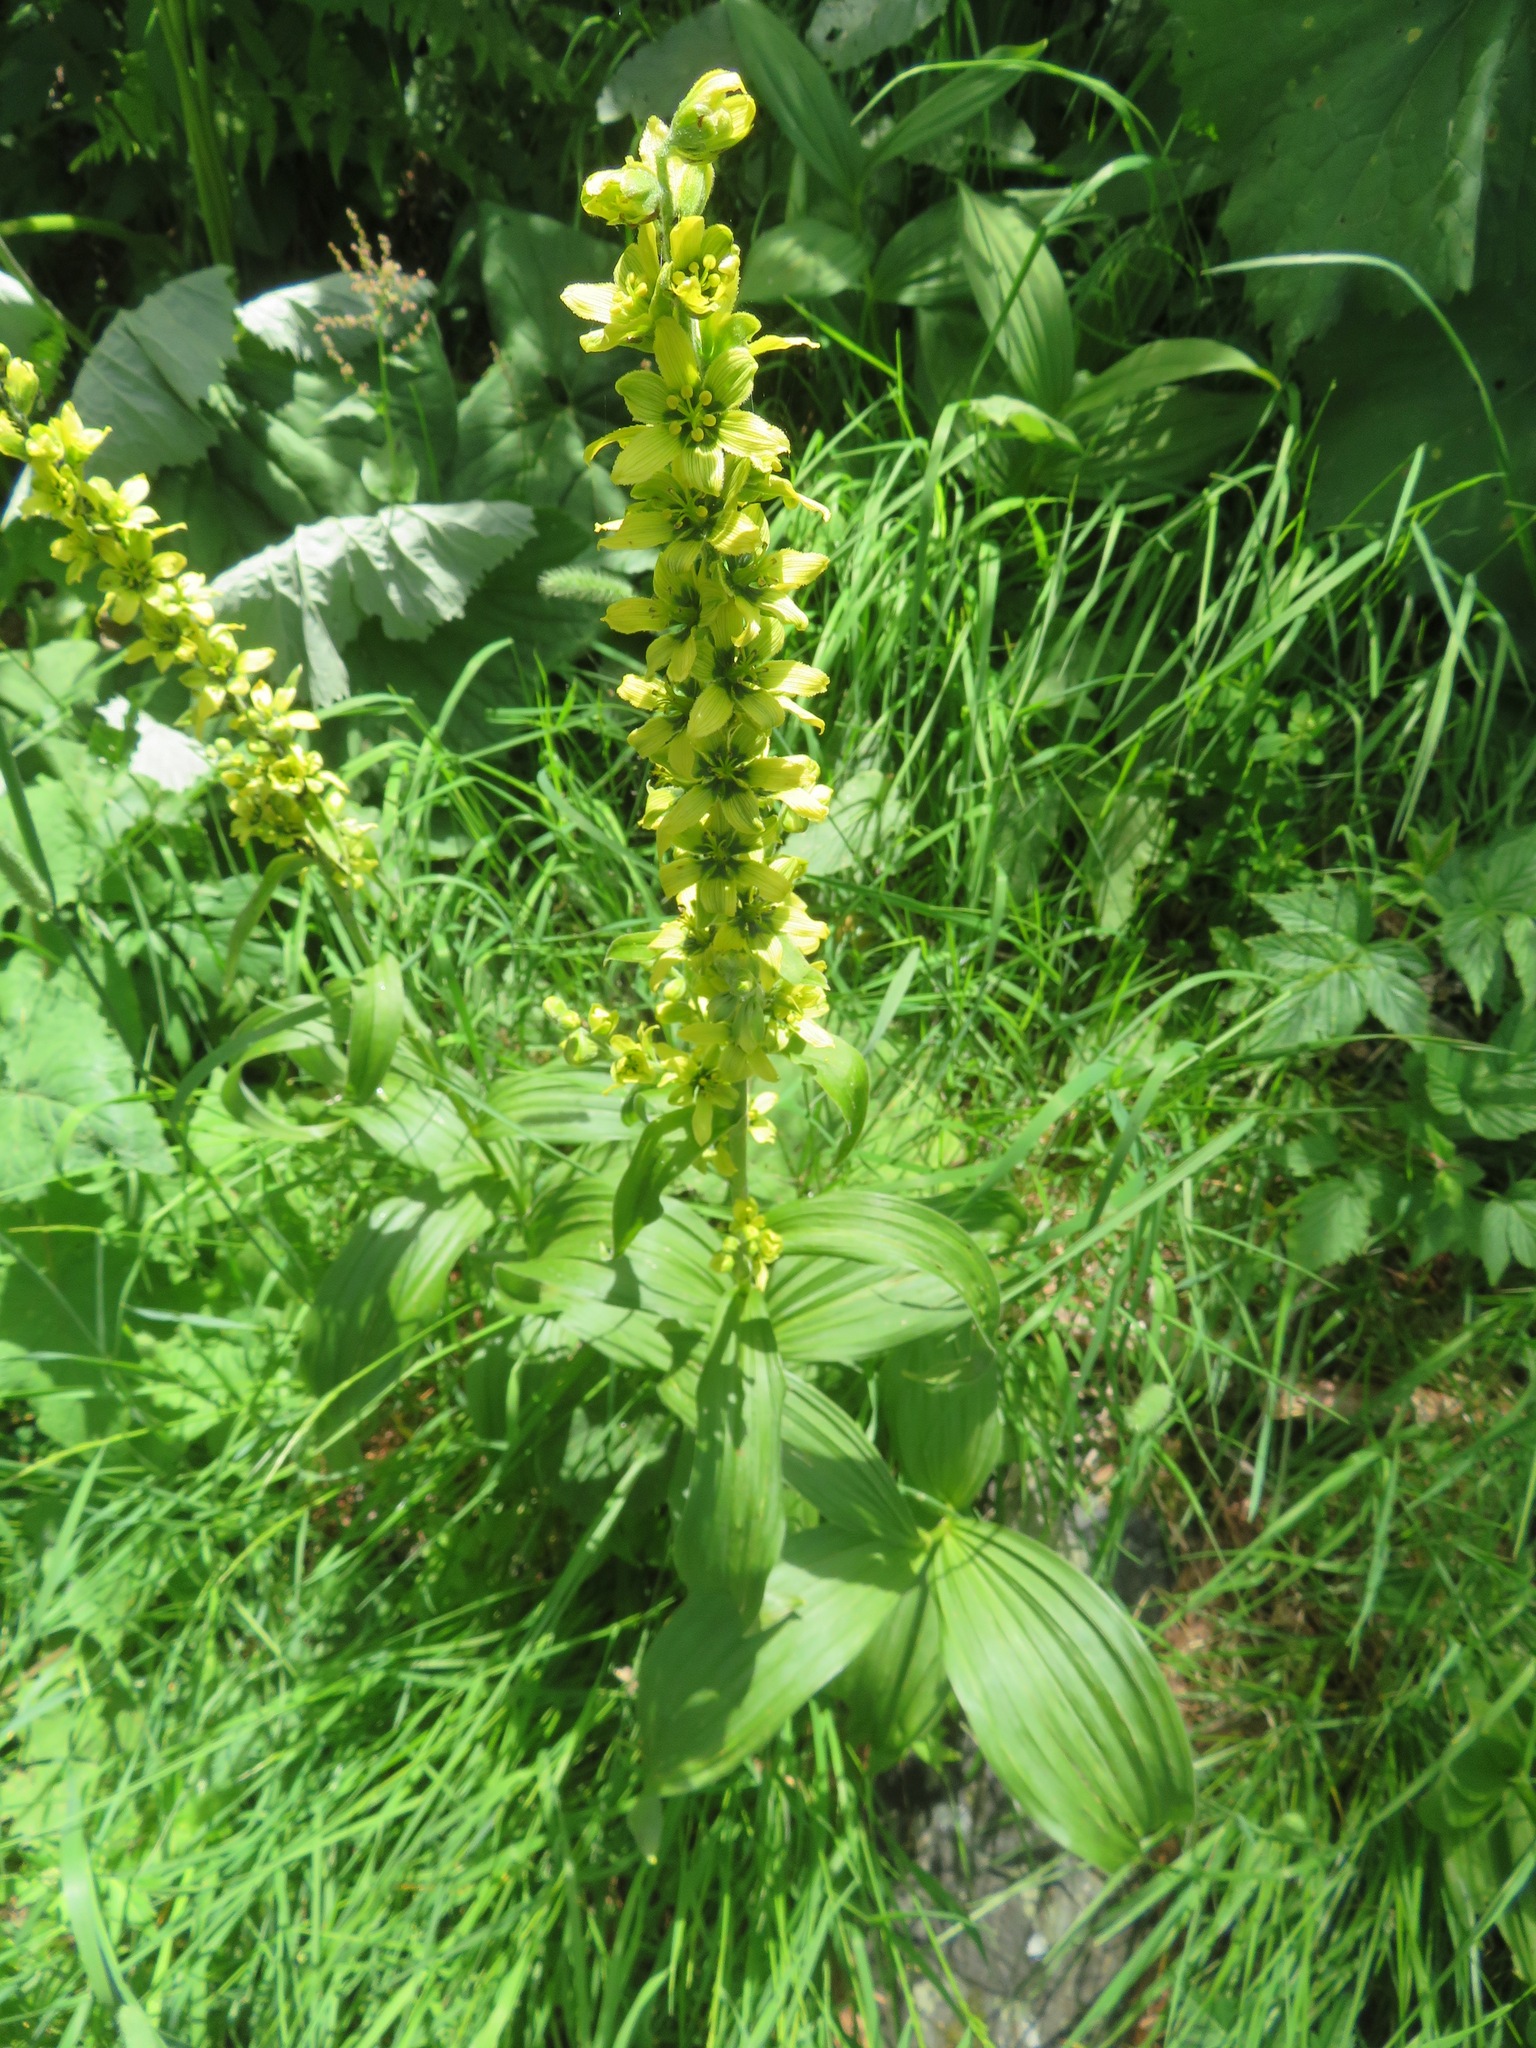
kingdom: Plantae
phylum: Tracheophyta
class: Liliopsida
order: Liliales
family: Melanthiaceae
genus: Veratrum
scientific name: Veratrum lobelianum
